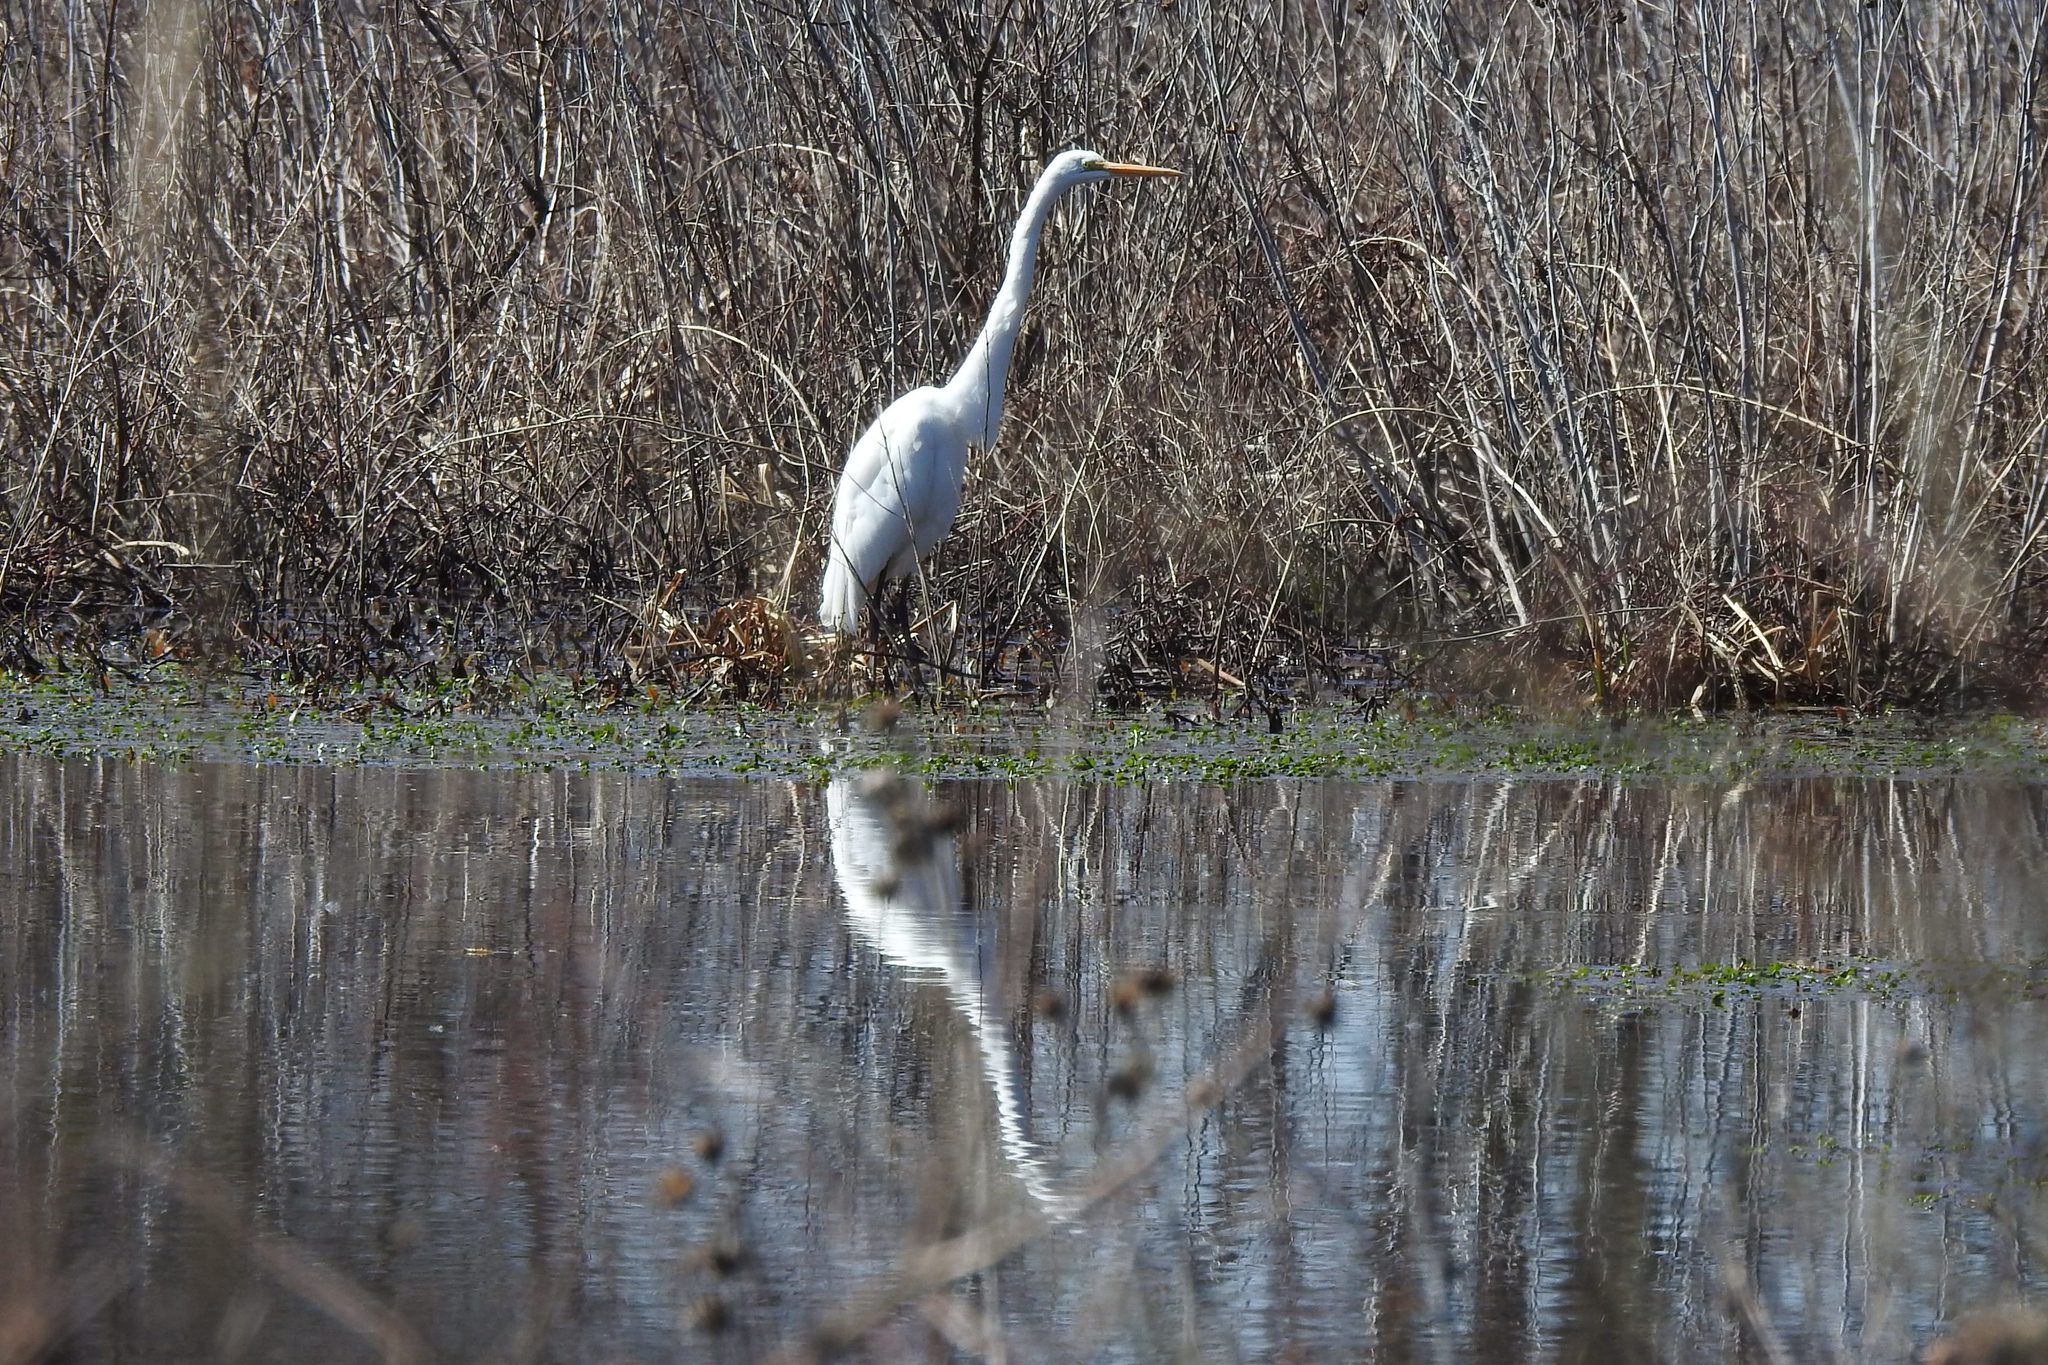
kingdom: Animalia
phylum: Chordata
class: Aves
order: Pelecaniformes
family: Ardeidae
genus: Ardea
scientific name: Ardea alba
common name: Great egret
